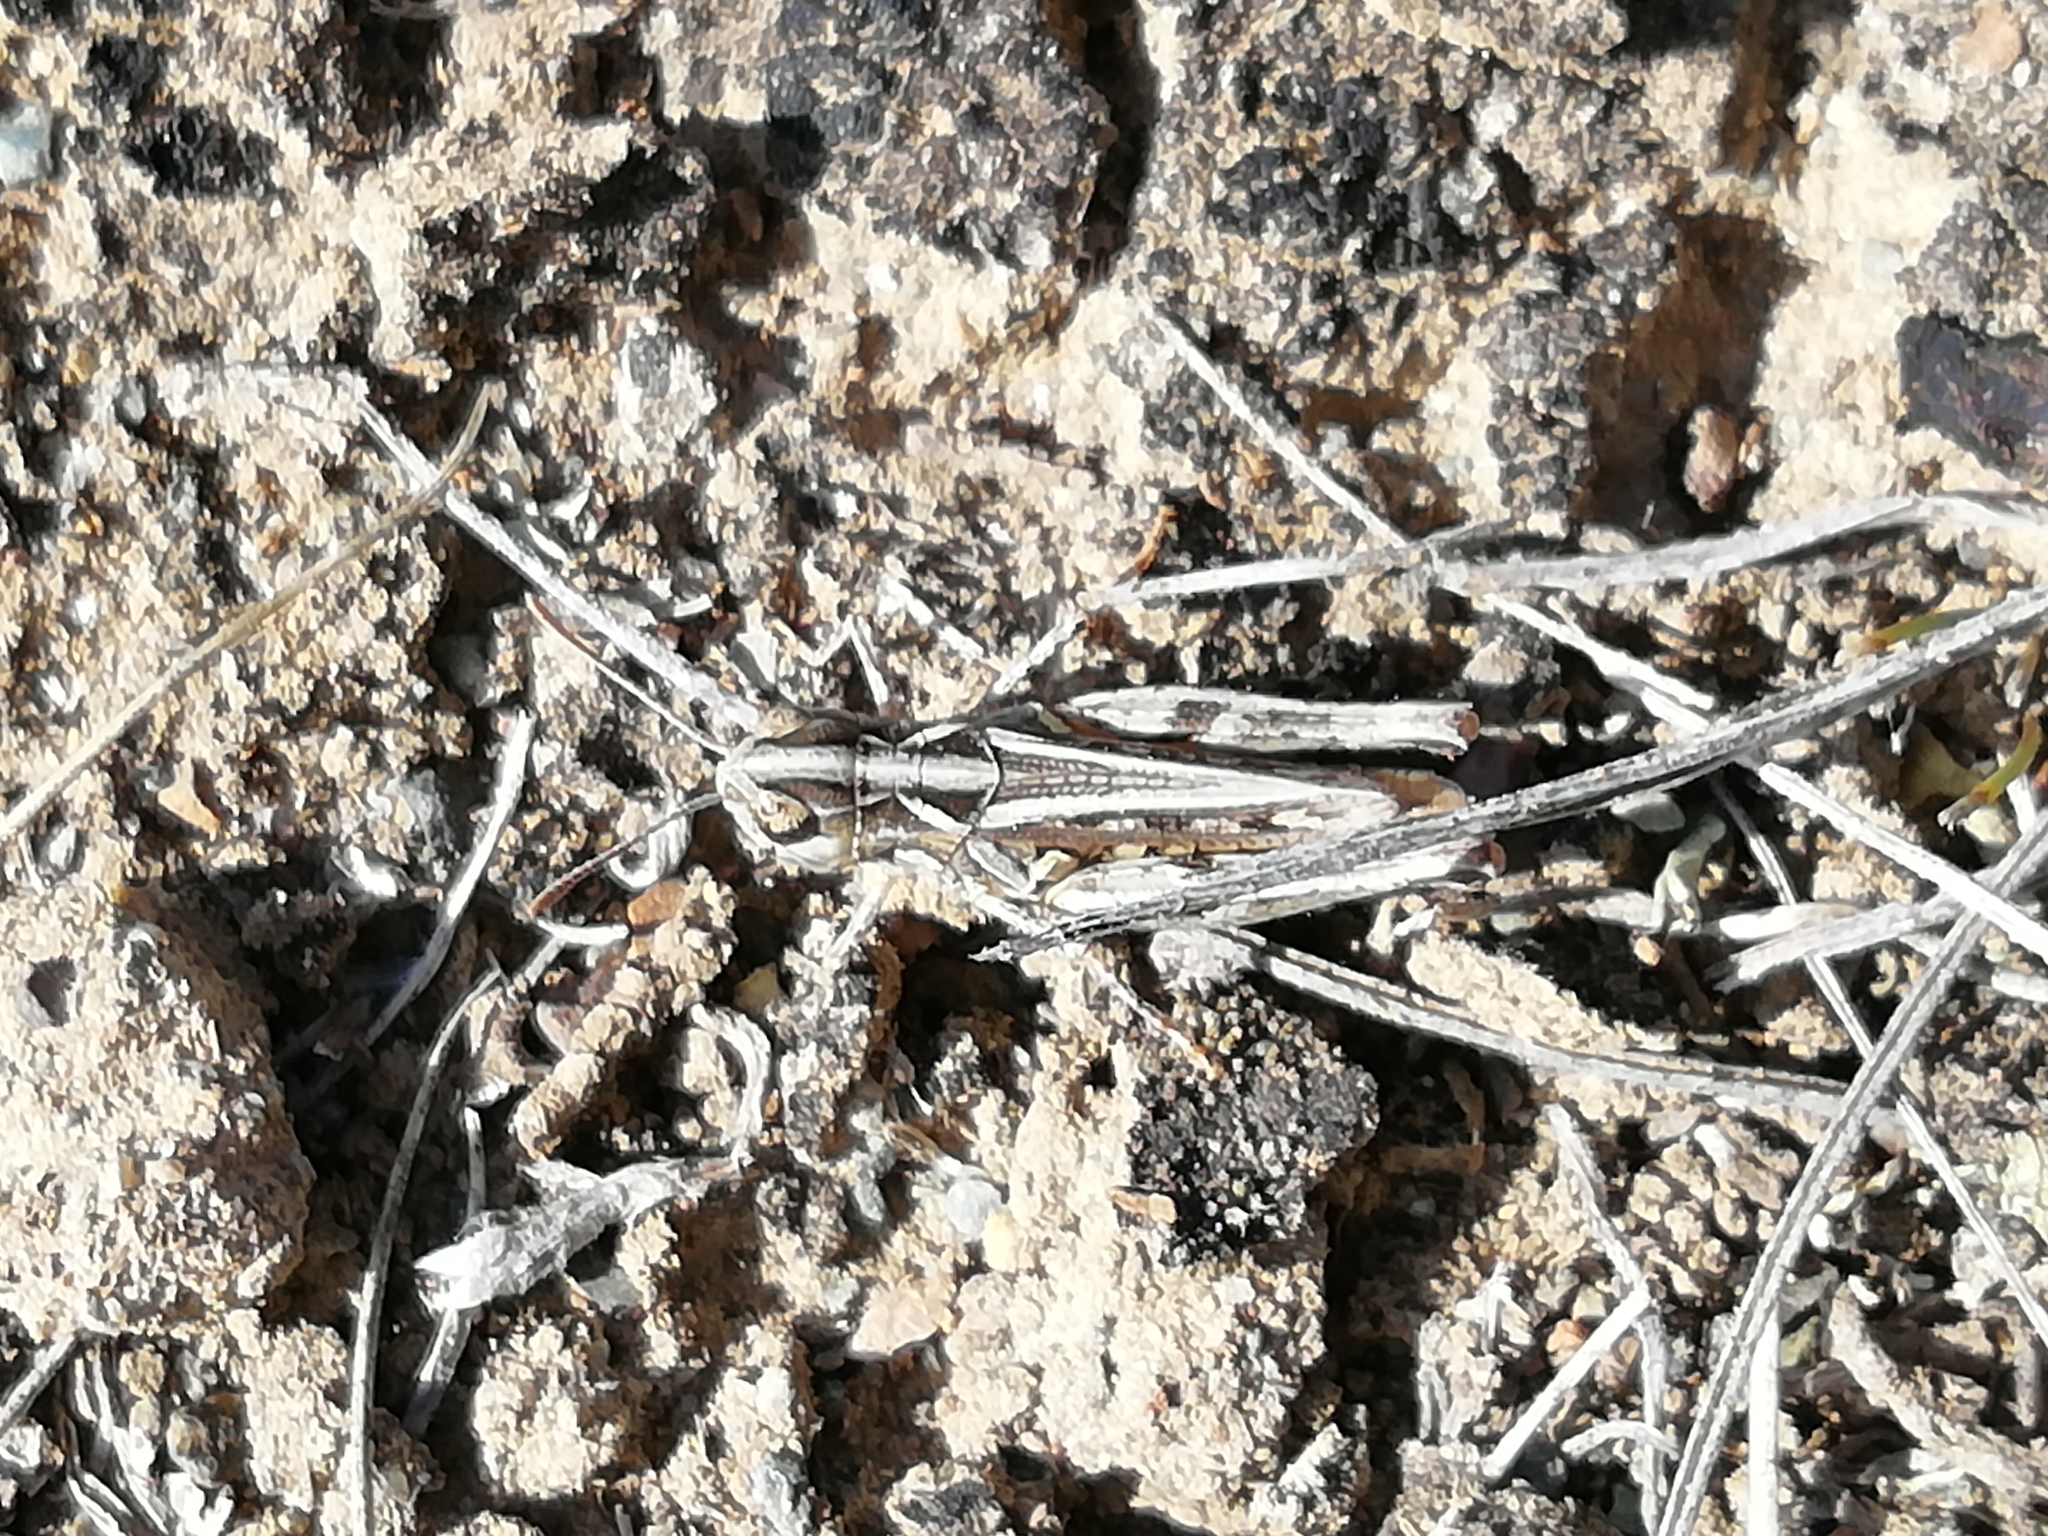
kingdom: Animalia
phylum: Arthropoda
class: Insecta
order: Orthoptera
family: Acrididae
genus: Myrmeleotettix
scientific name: Myrmeleotettix palpalis
